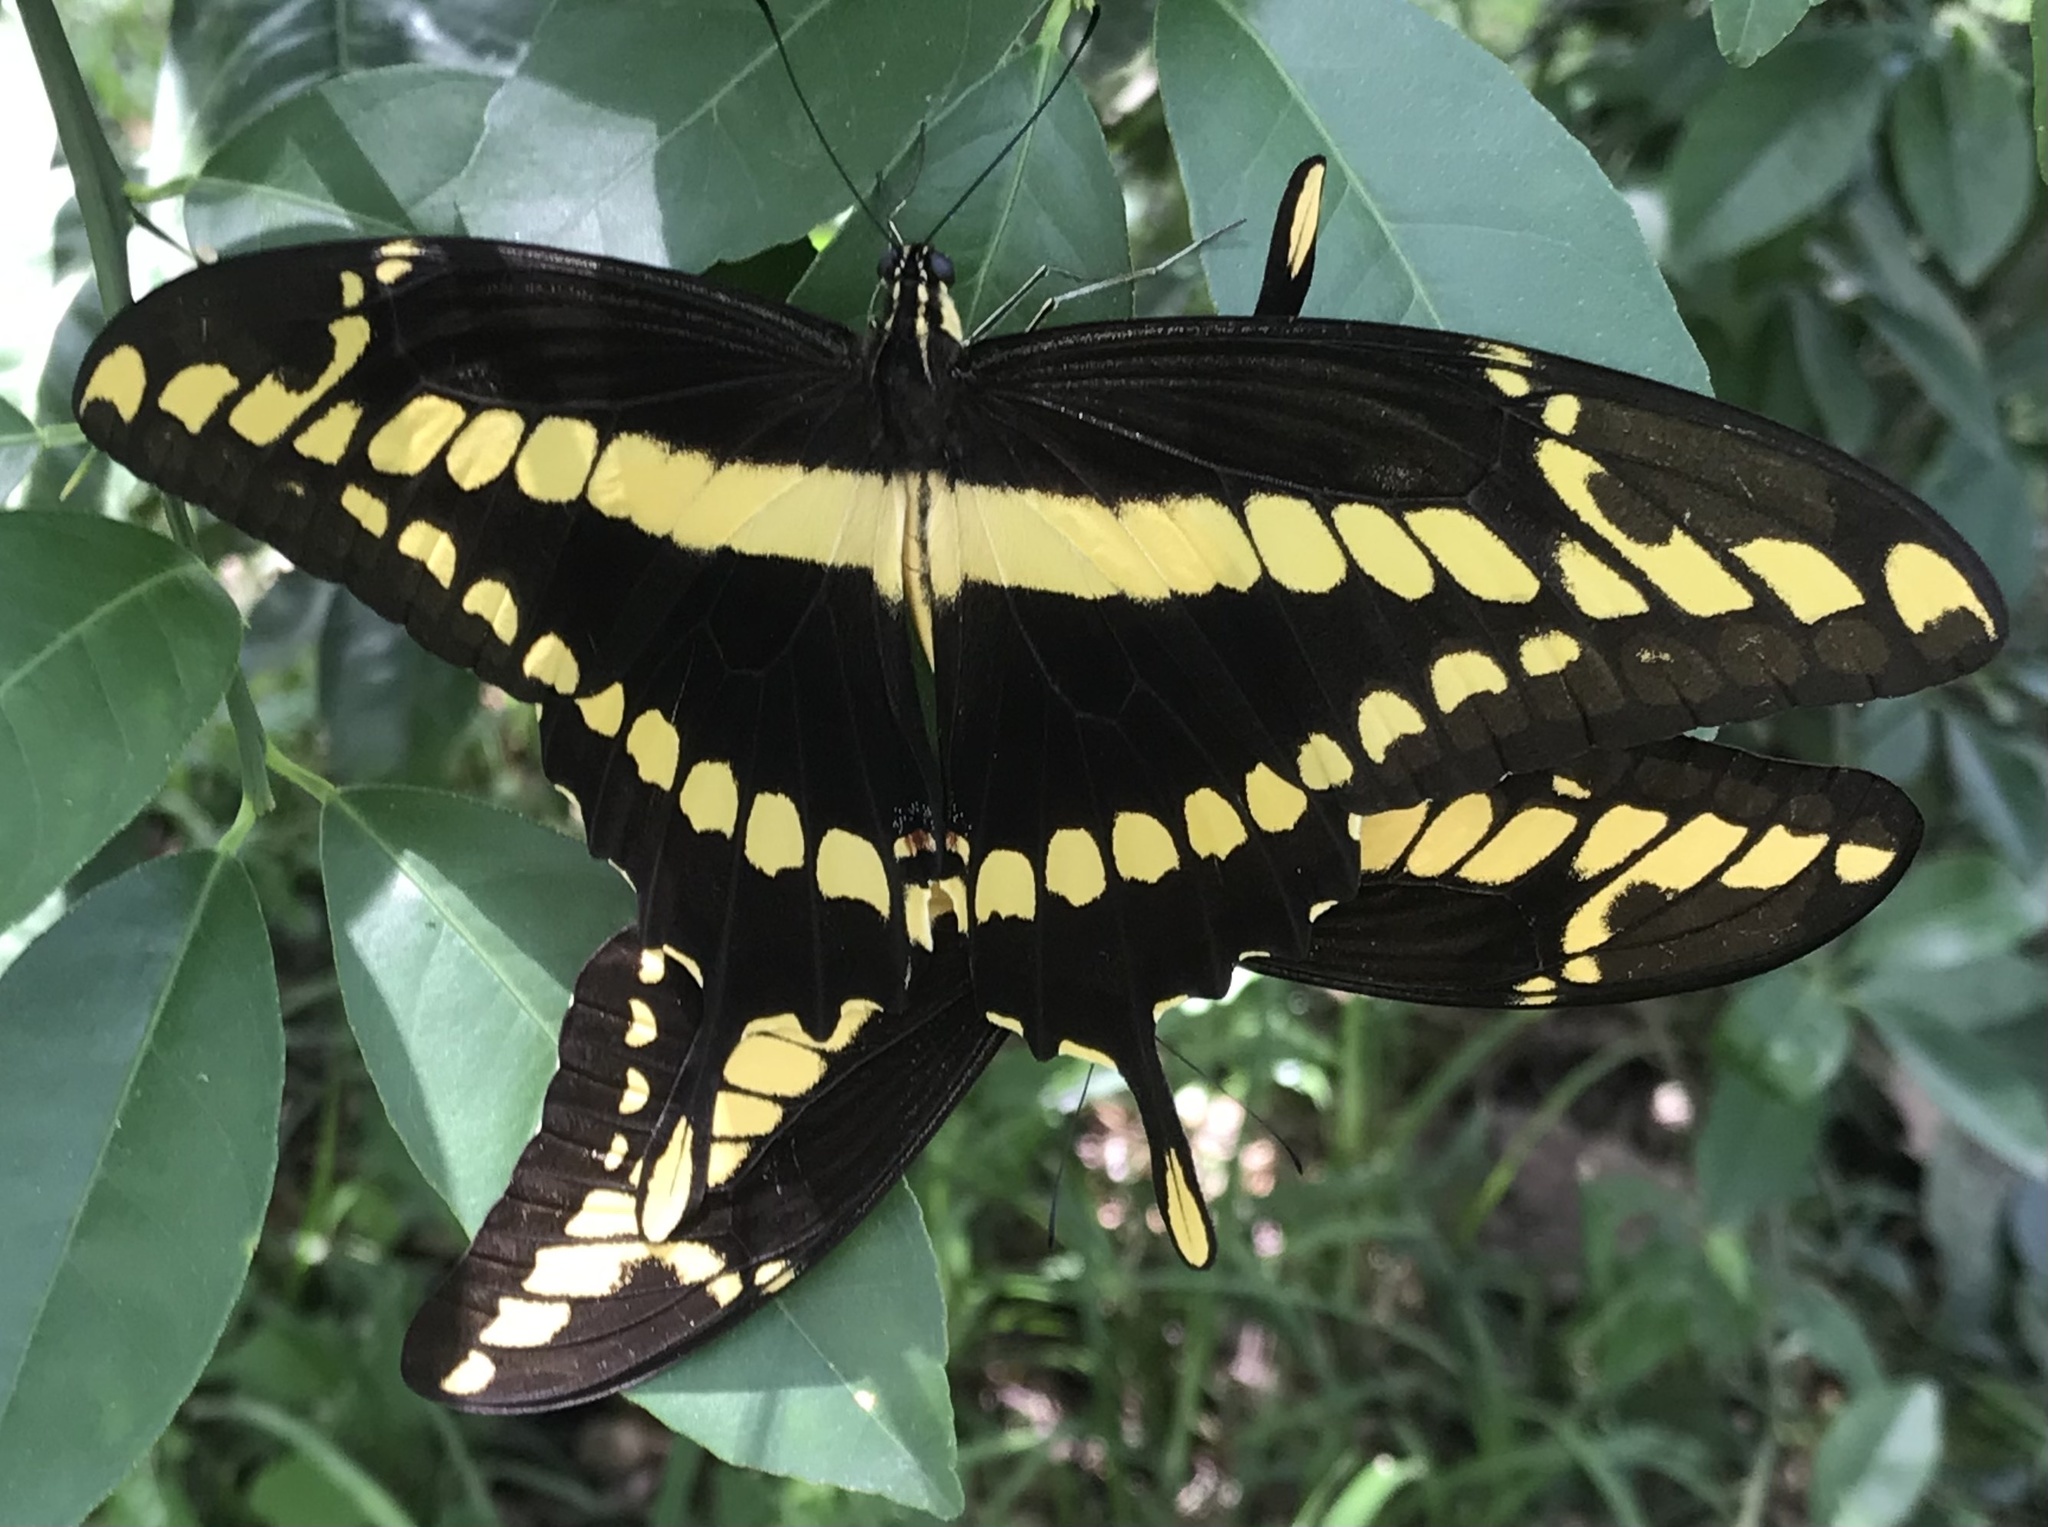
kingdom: Animalia
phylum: Arthropoda
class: Insecta
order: Lepidoptera
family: Papilionidae
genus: Papilio
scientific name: Papilio thoas
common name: King swallowtail
